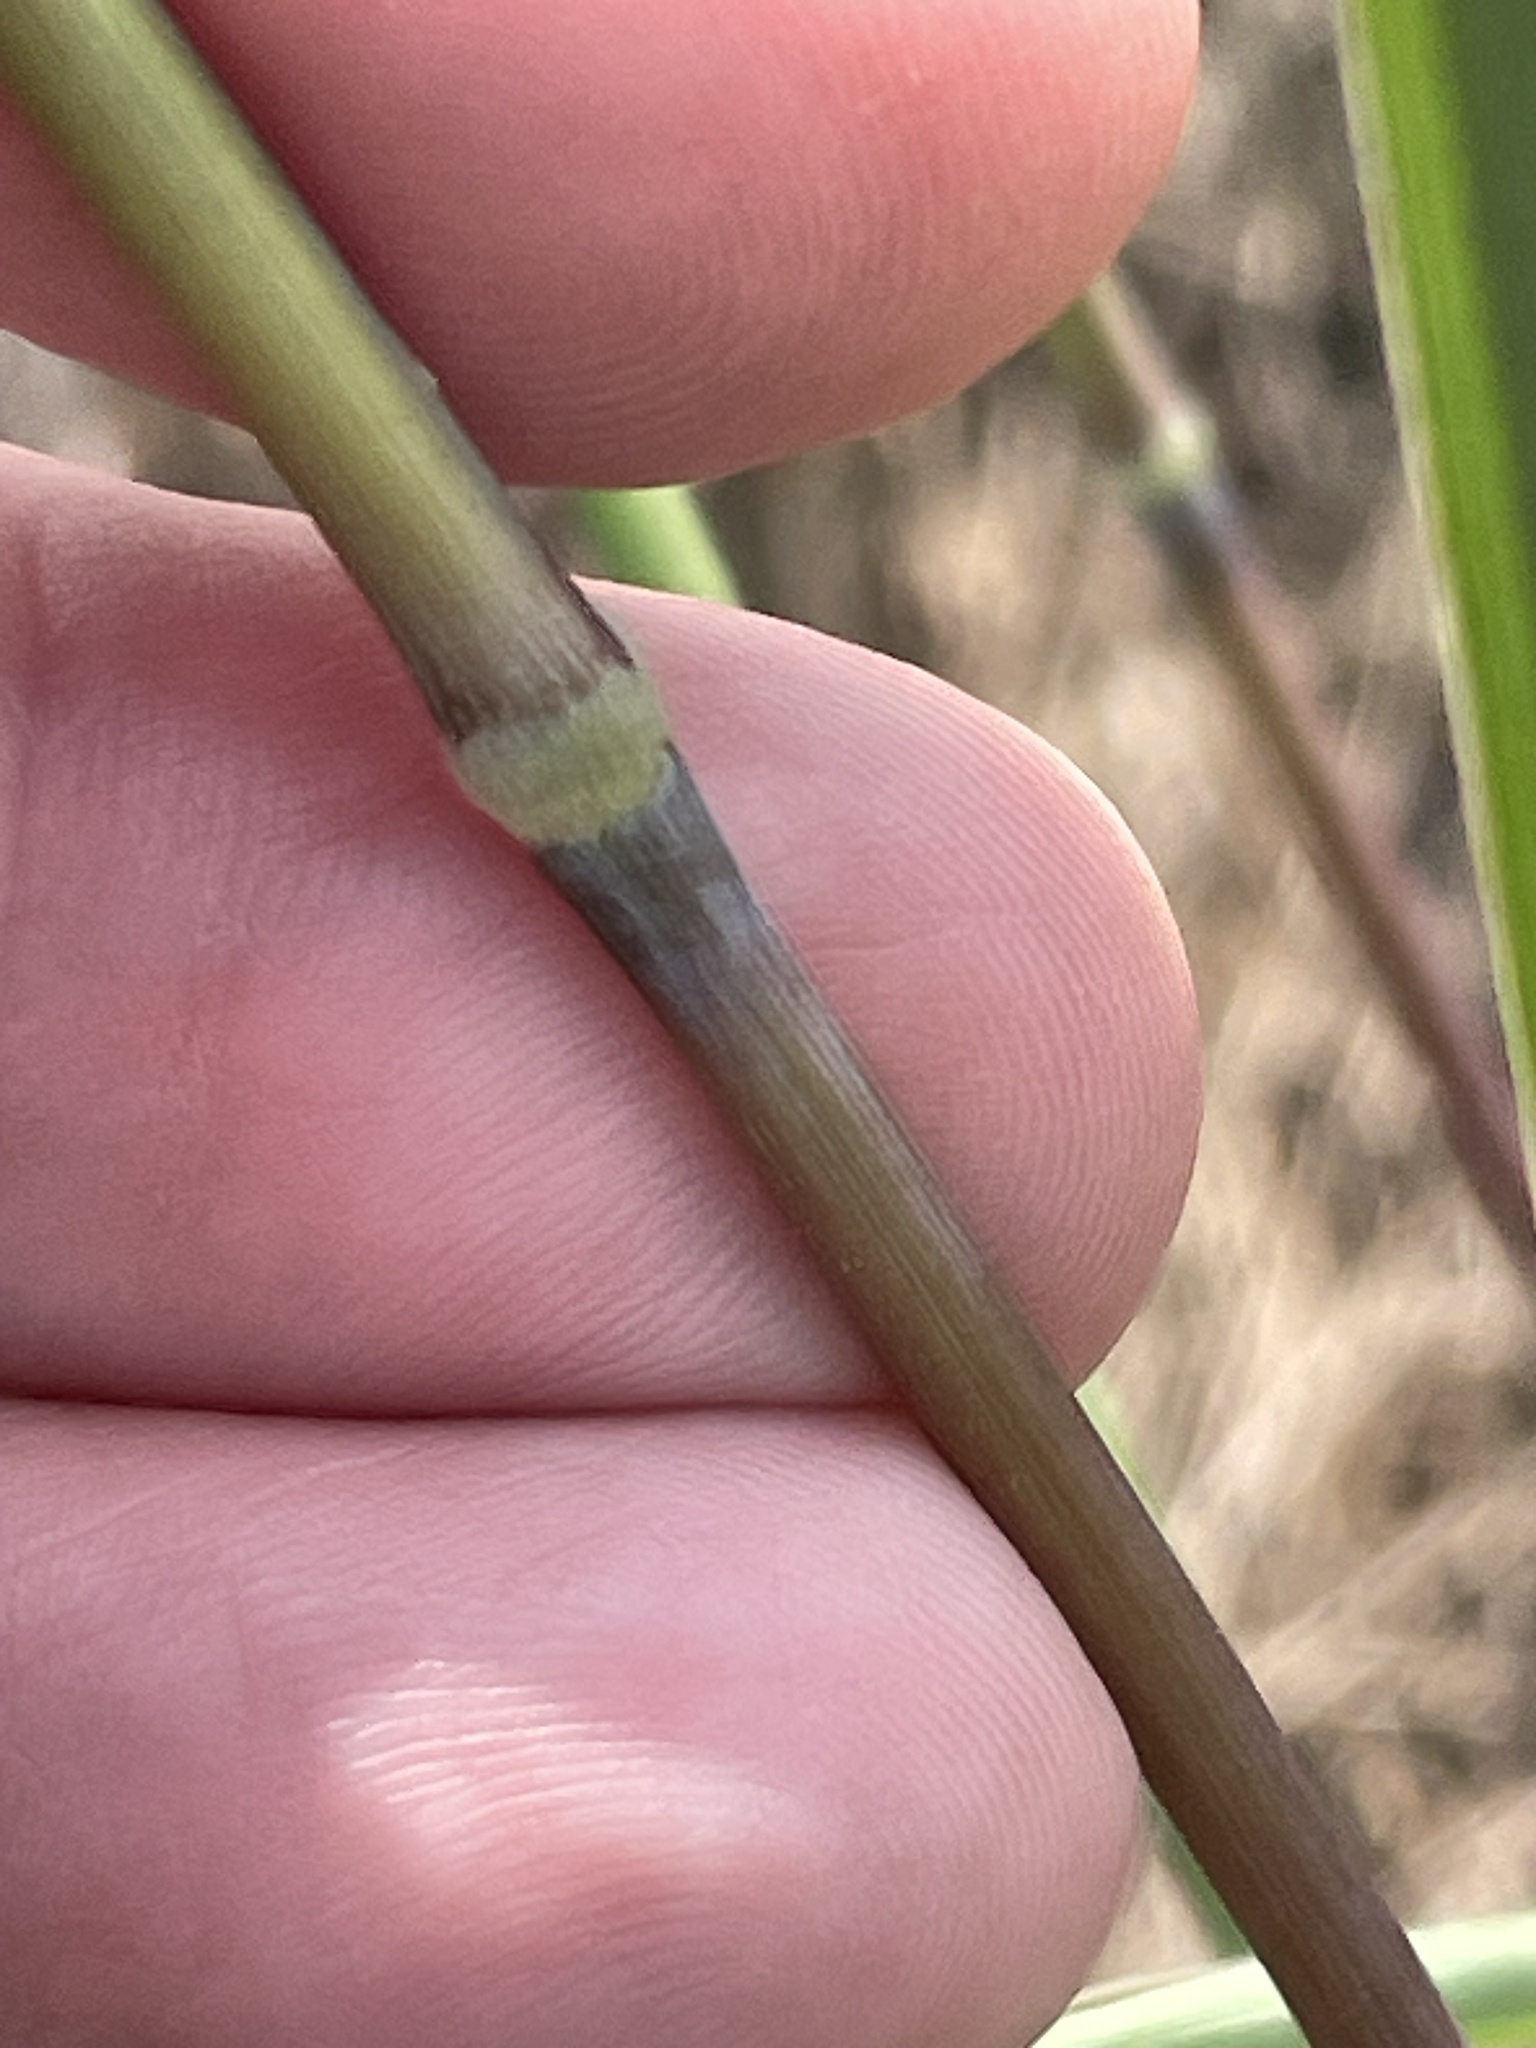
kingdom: Plantae
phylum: Tracheophyta
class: Liliopsida
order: Poales
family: Poaceae
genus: Sorghastrum
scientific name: Sorghastrum nutans
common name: Indian grass
